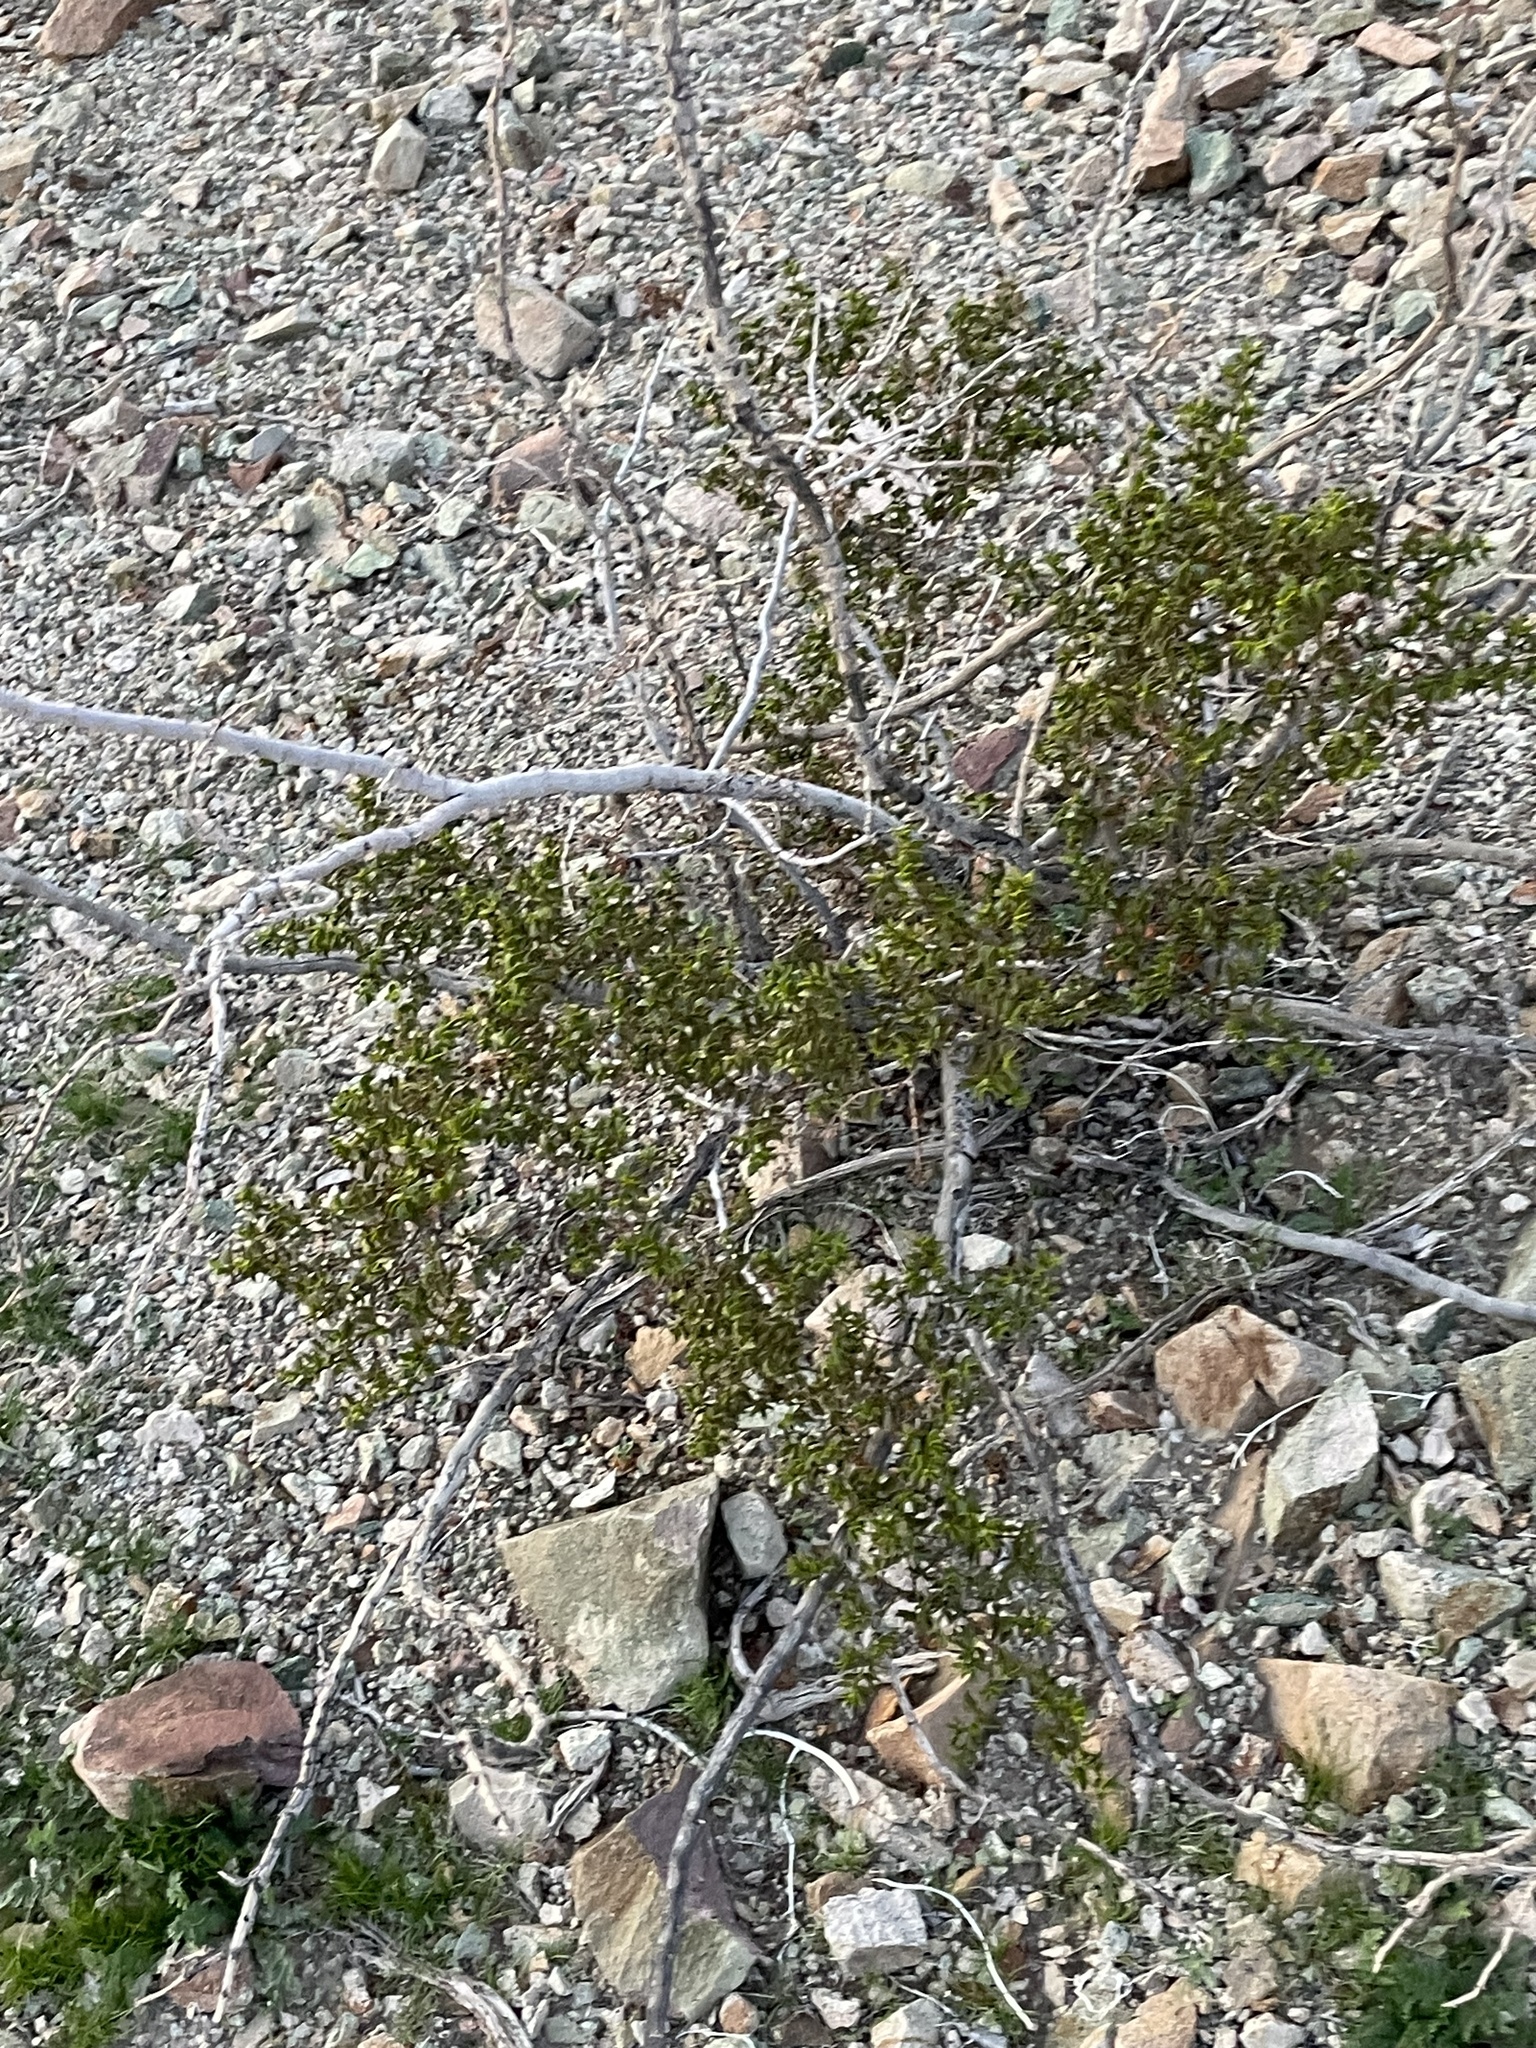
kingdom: Plantae
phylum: Tracheophyta
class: Magnoliopsida
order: Zygophyllales
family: Zygophyllaceae
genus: Larrea
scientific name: Larrea tridentata
